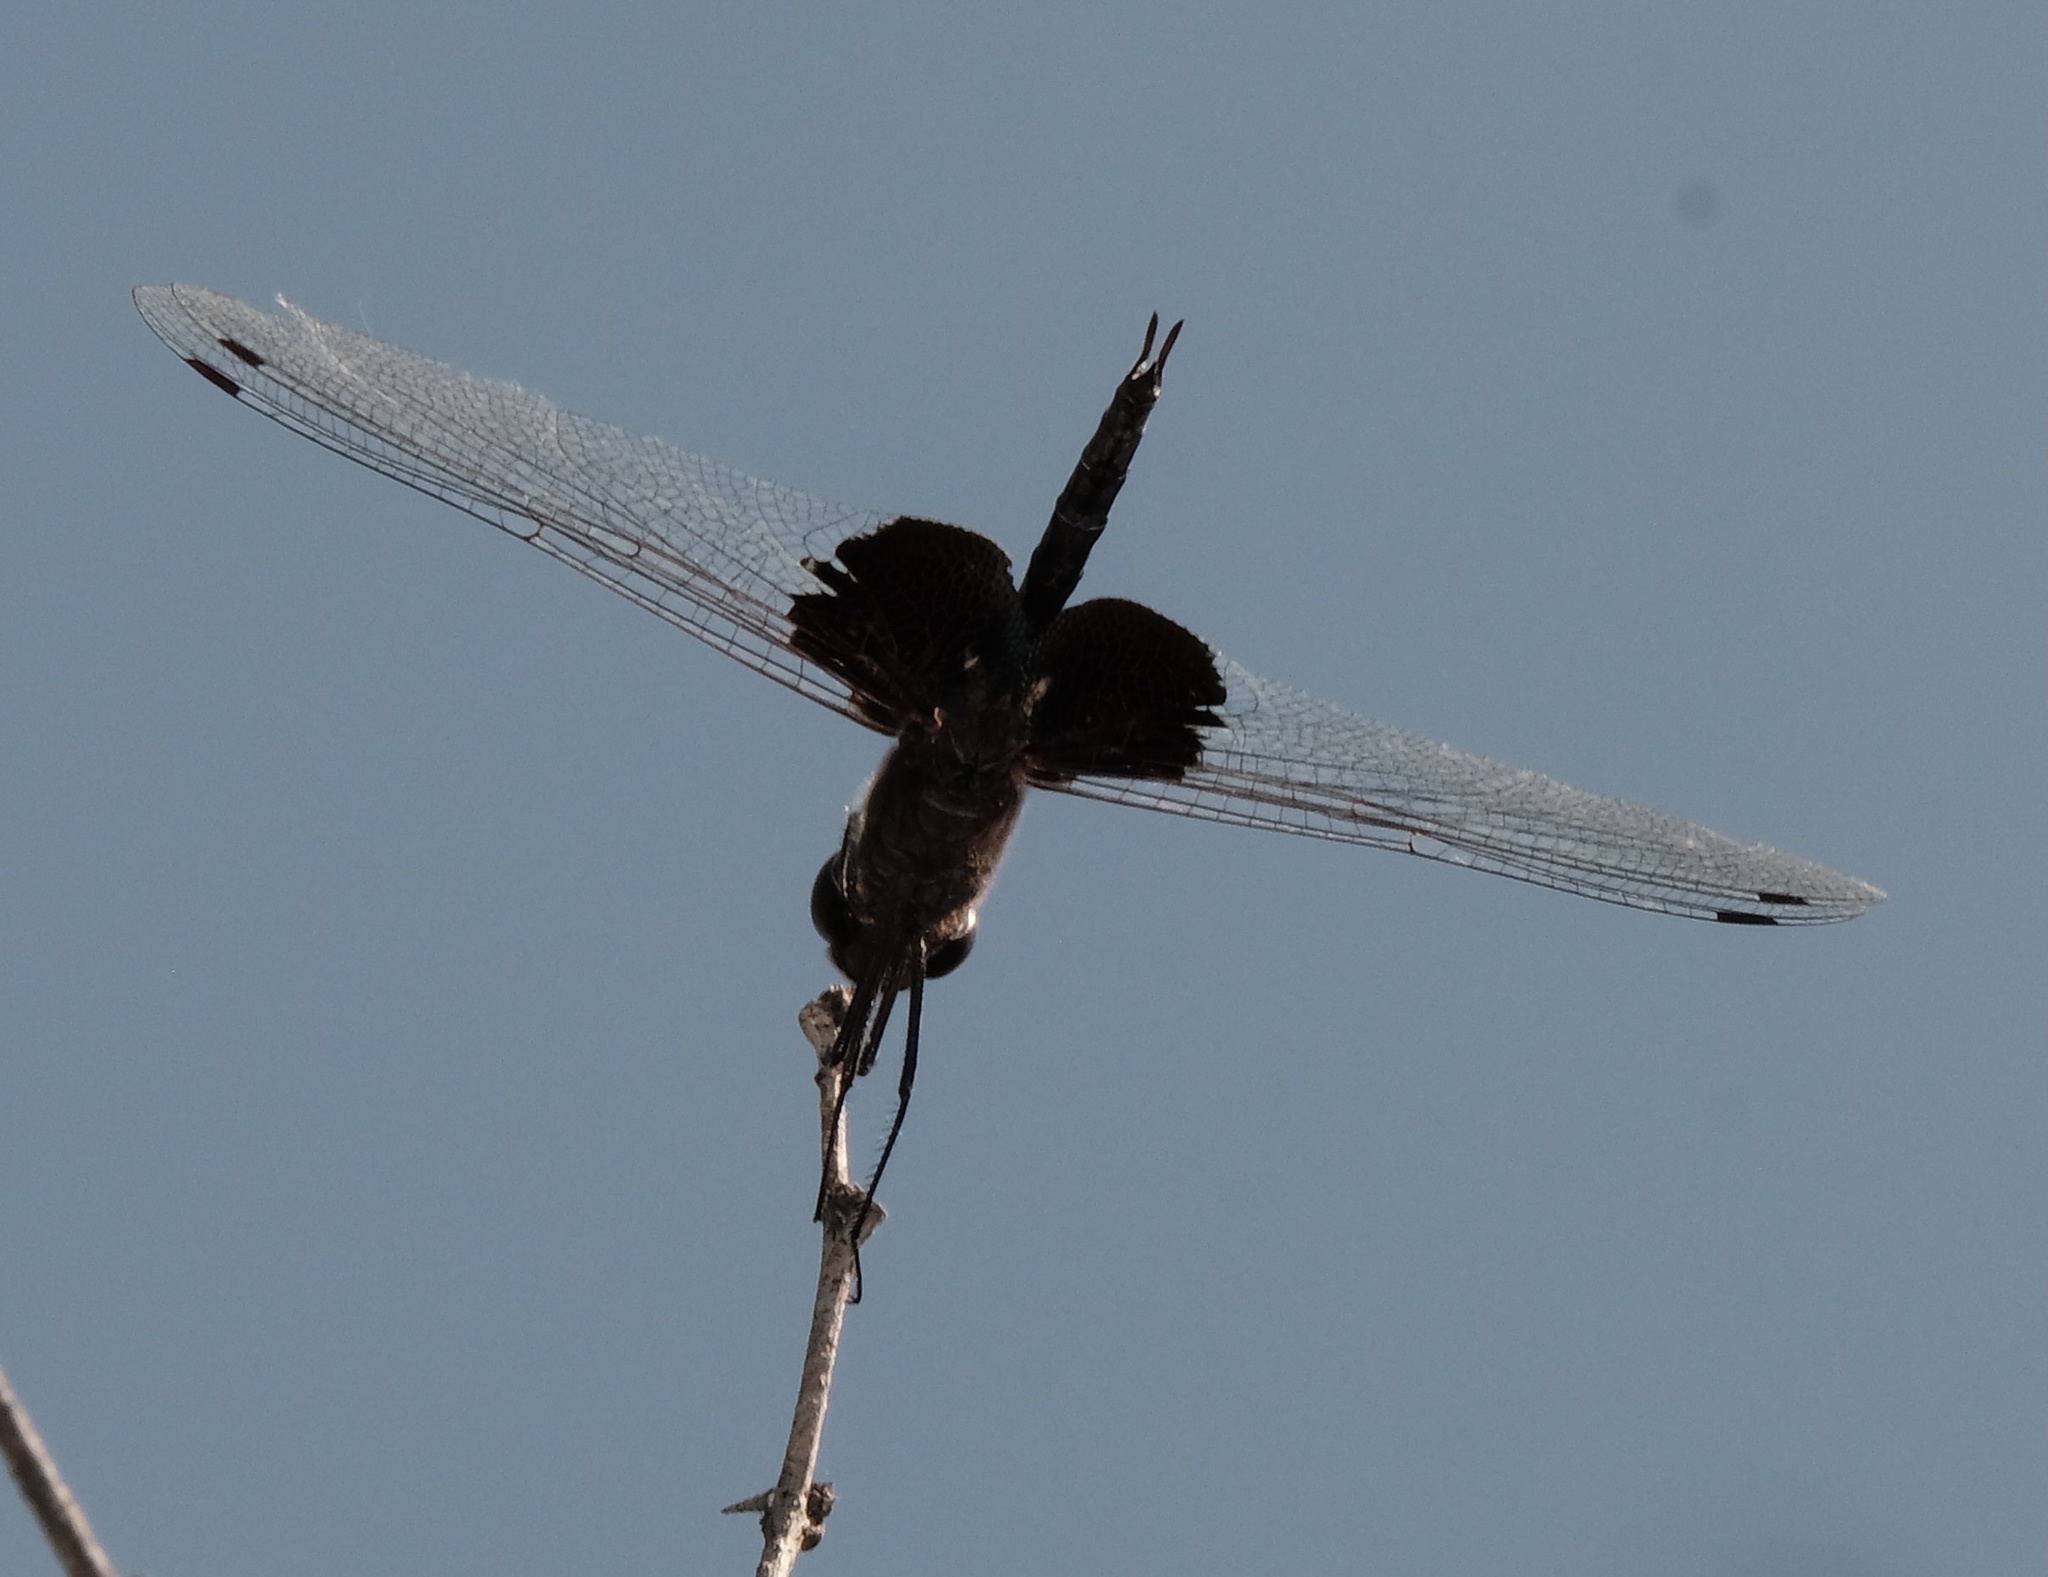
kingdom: Animalia
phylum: Arthropoda
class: Insecta
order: Odonata
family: Libellulidae
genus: Tramea
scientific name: Tramea lacerata
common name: Black saddlebags
